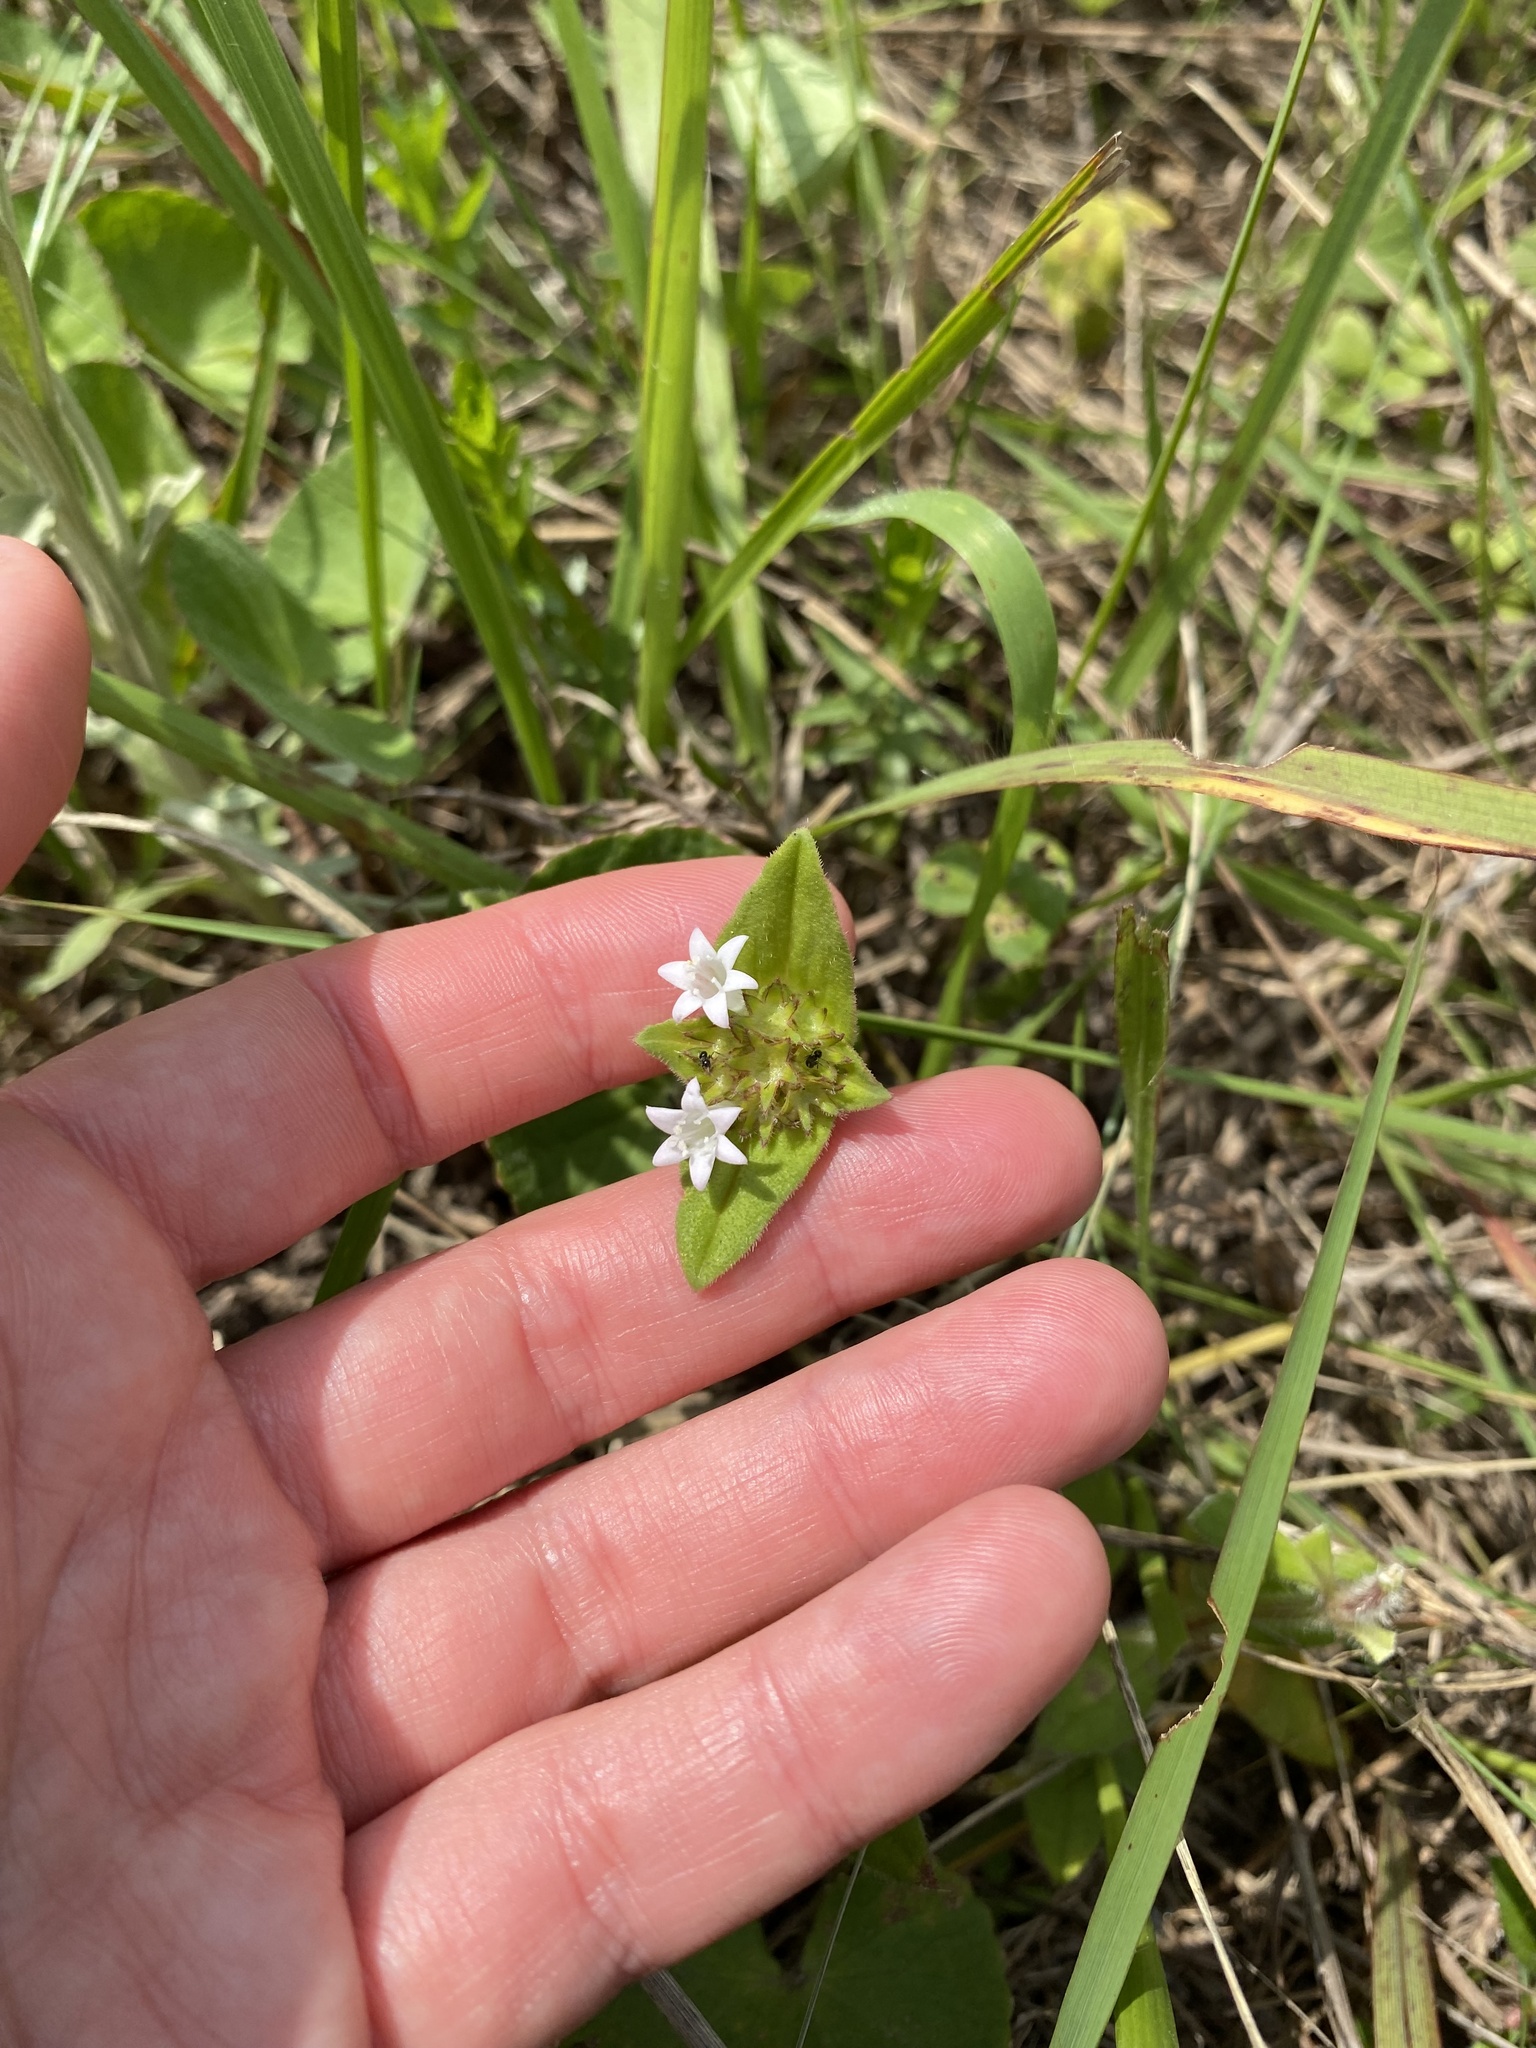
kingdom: Plantae
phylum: Tracheophyta
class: Magnoliopsida
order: Gentianales
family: Rubiaceae
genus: Richardia
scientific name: Richardia brasiliensis
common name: Tropical mexican clover
